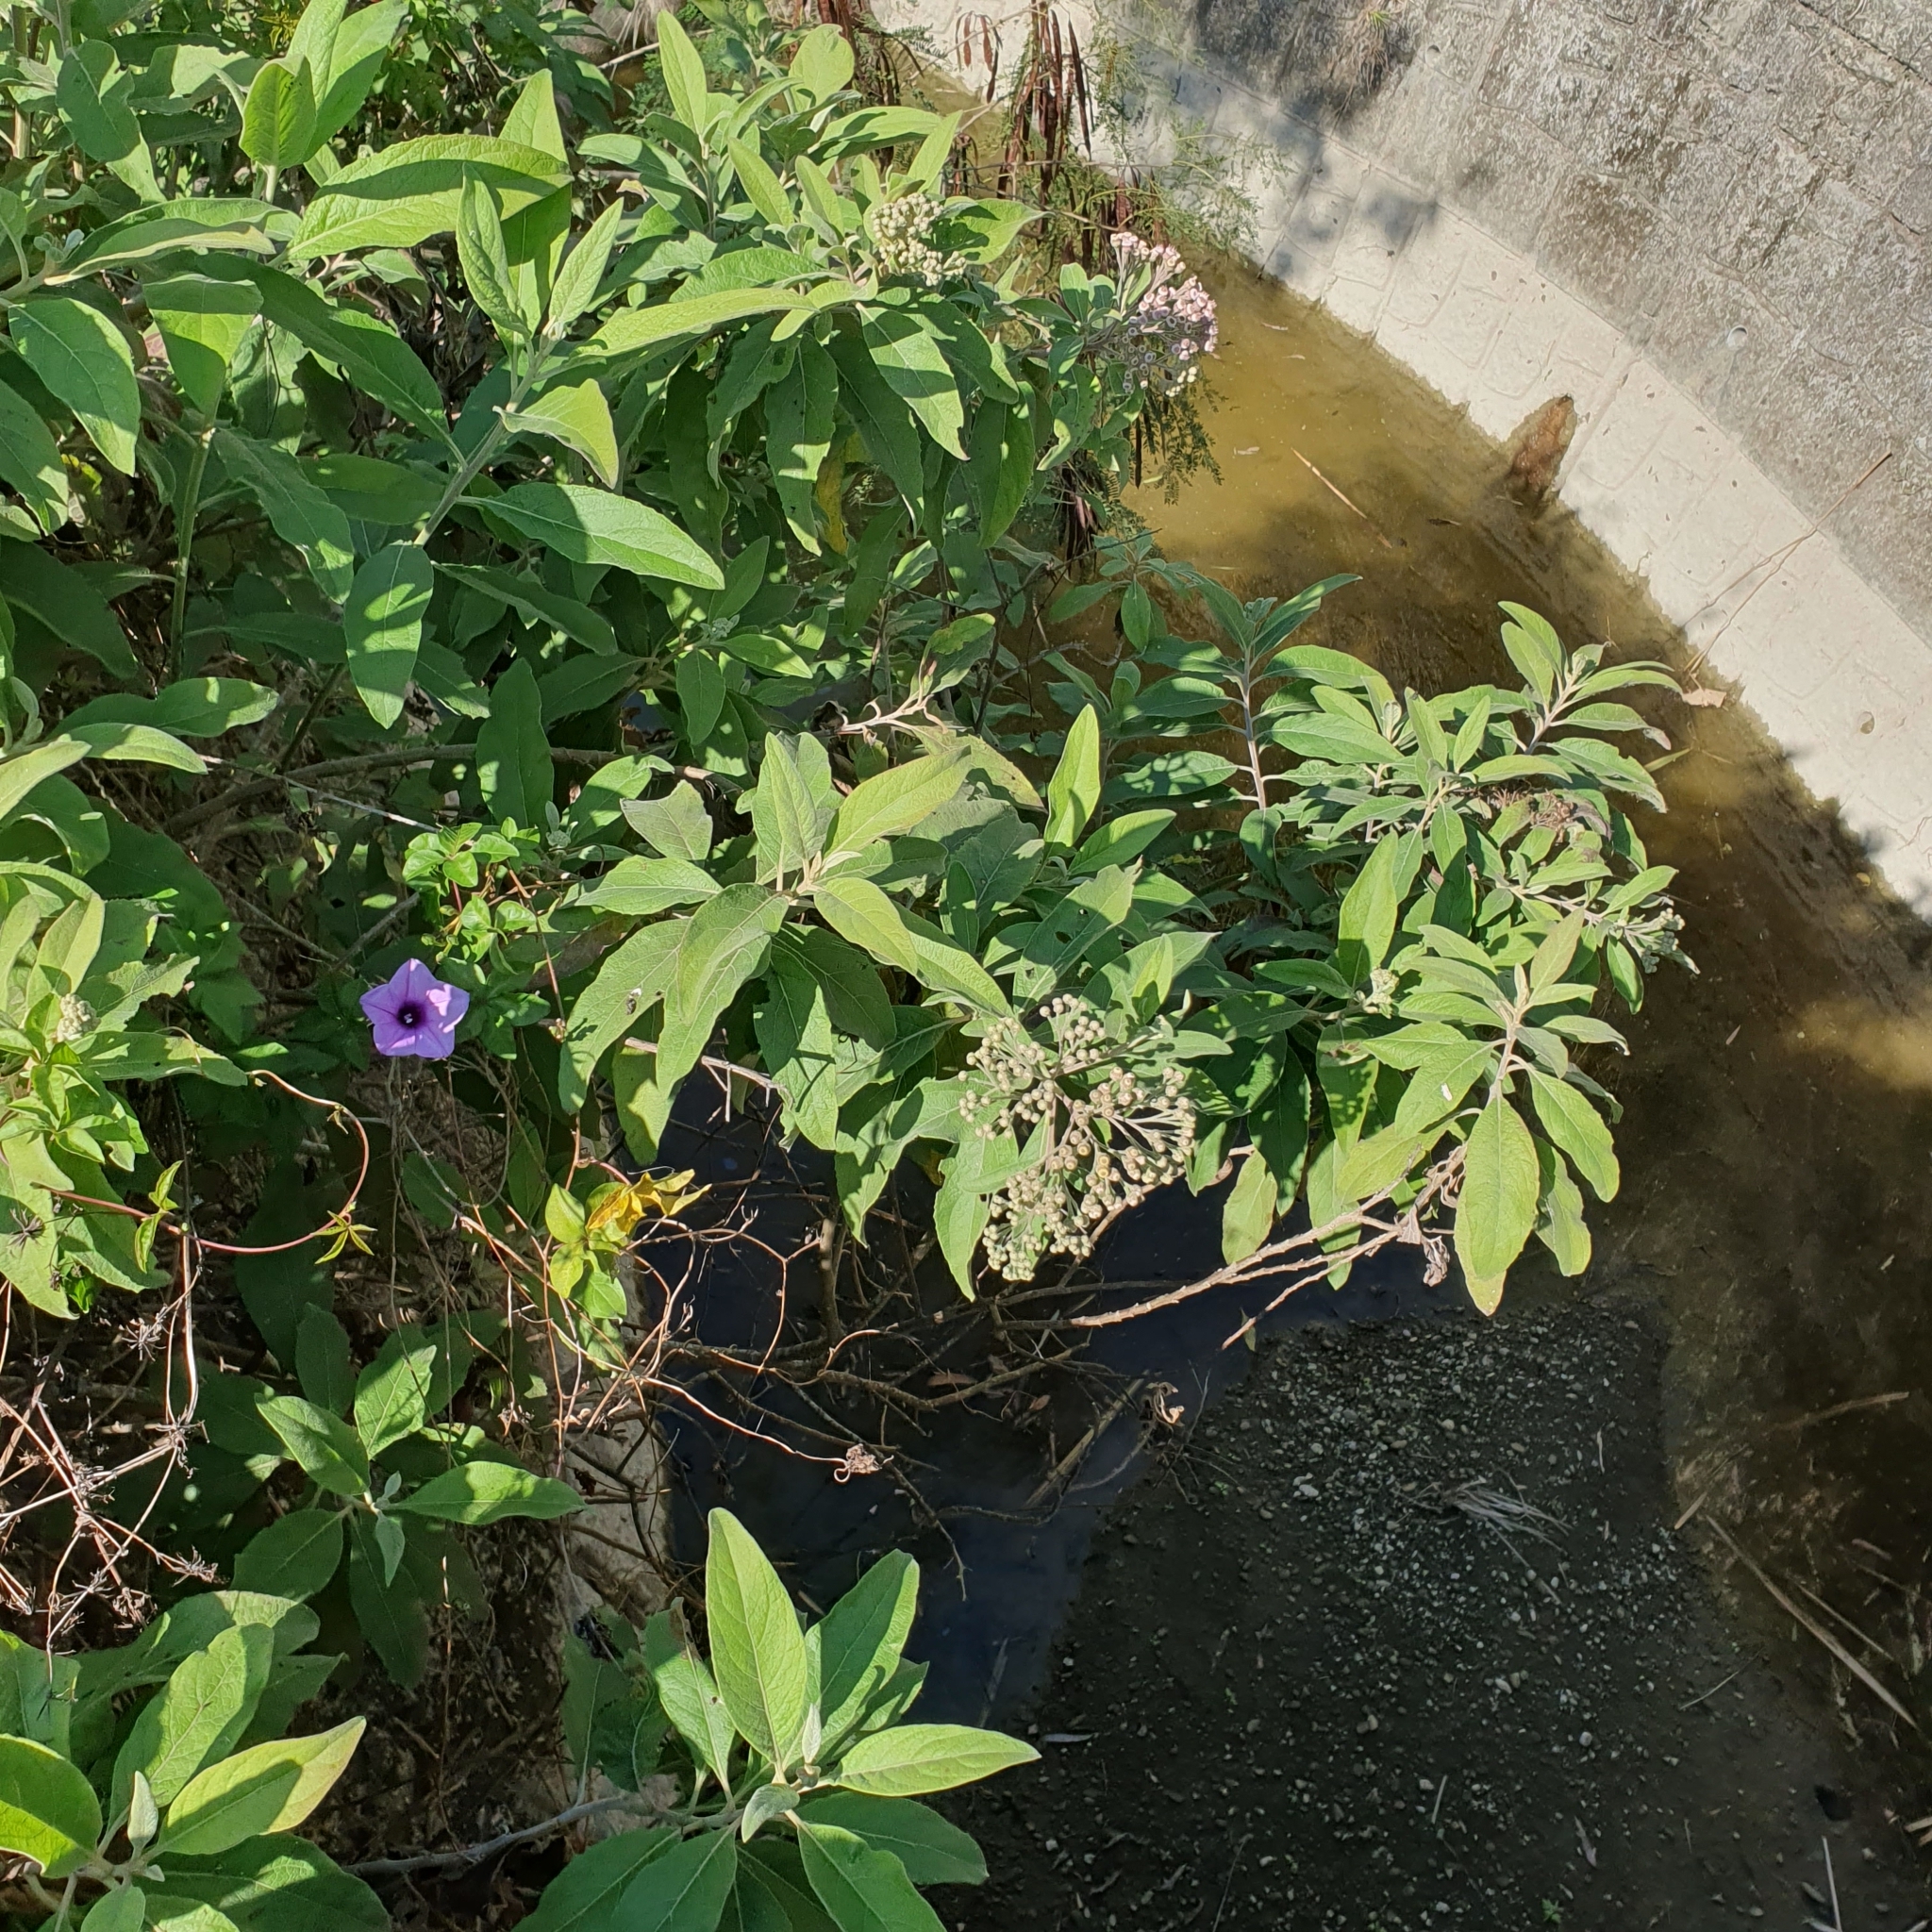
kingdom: Plantae
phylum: Tracheophyta
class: Magnoliopsida
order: Asterales
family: Asteraceae
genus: Pluchea
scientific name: Pluchea carolinensis
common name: Marsh fleabane
